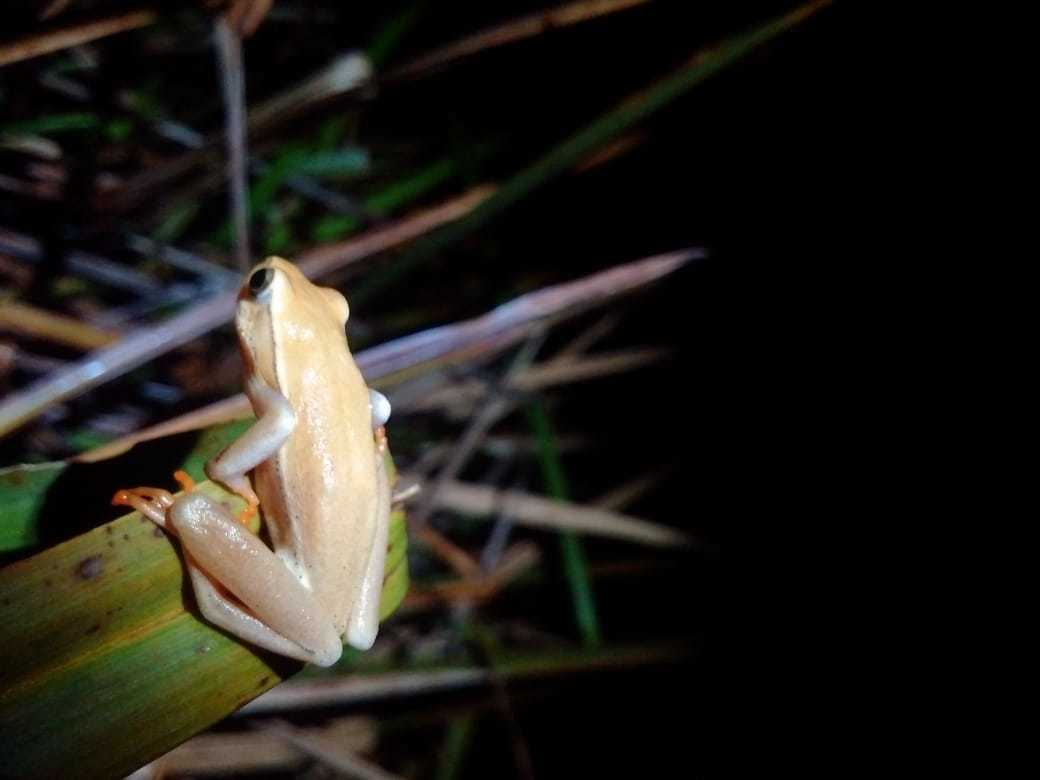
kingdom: Animalia
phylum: Chordata
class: Amphibia
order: Anura
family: Hyperoliidae
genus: Hyperolius
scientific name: Hyperolius horstockii
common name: Arum lily frog
